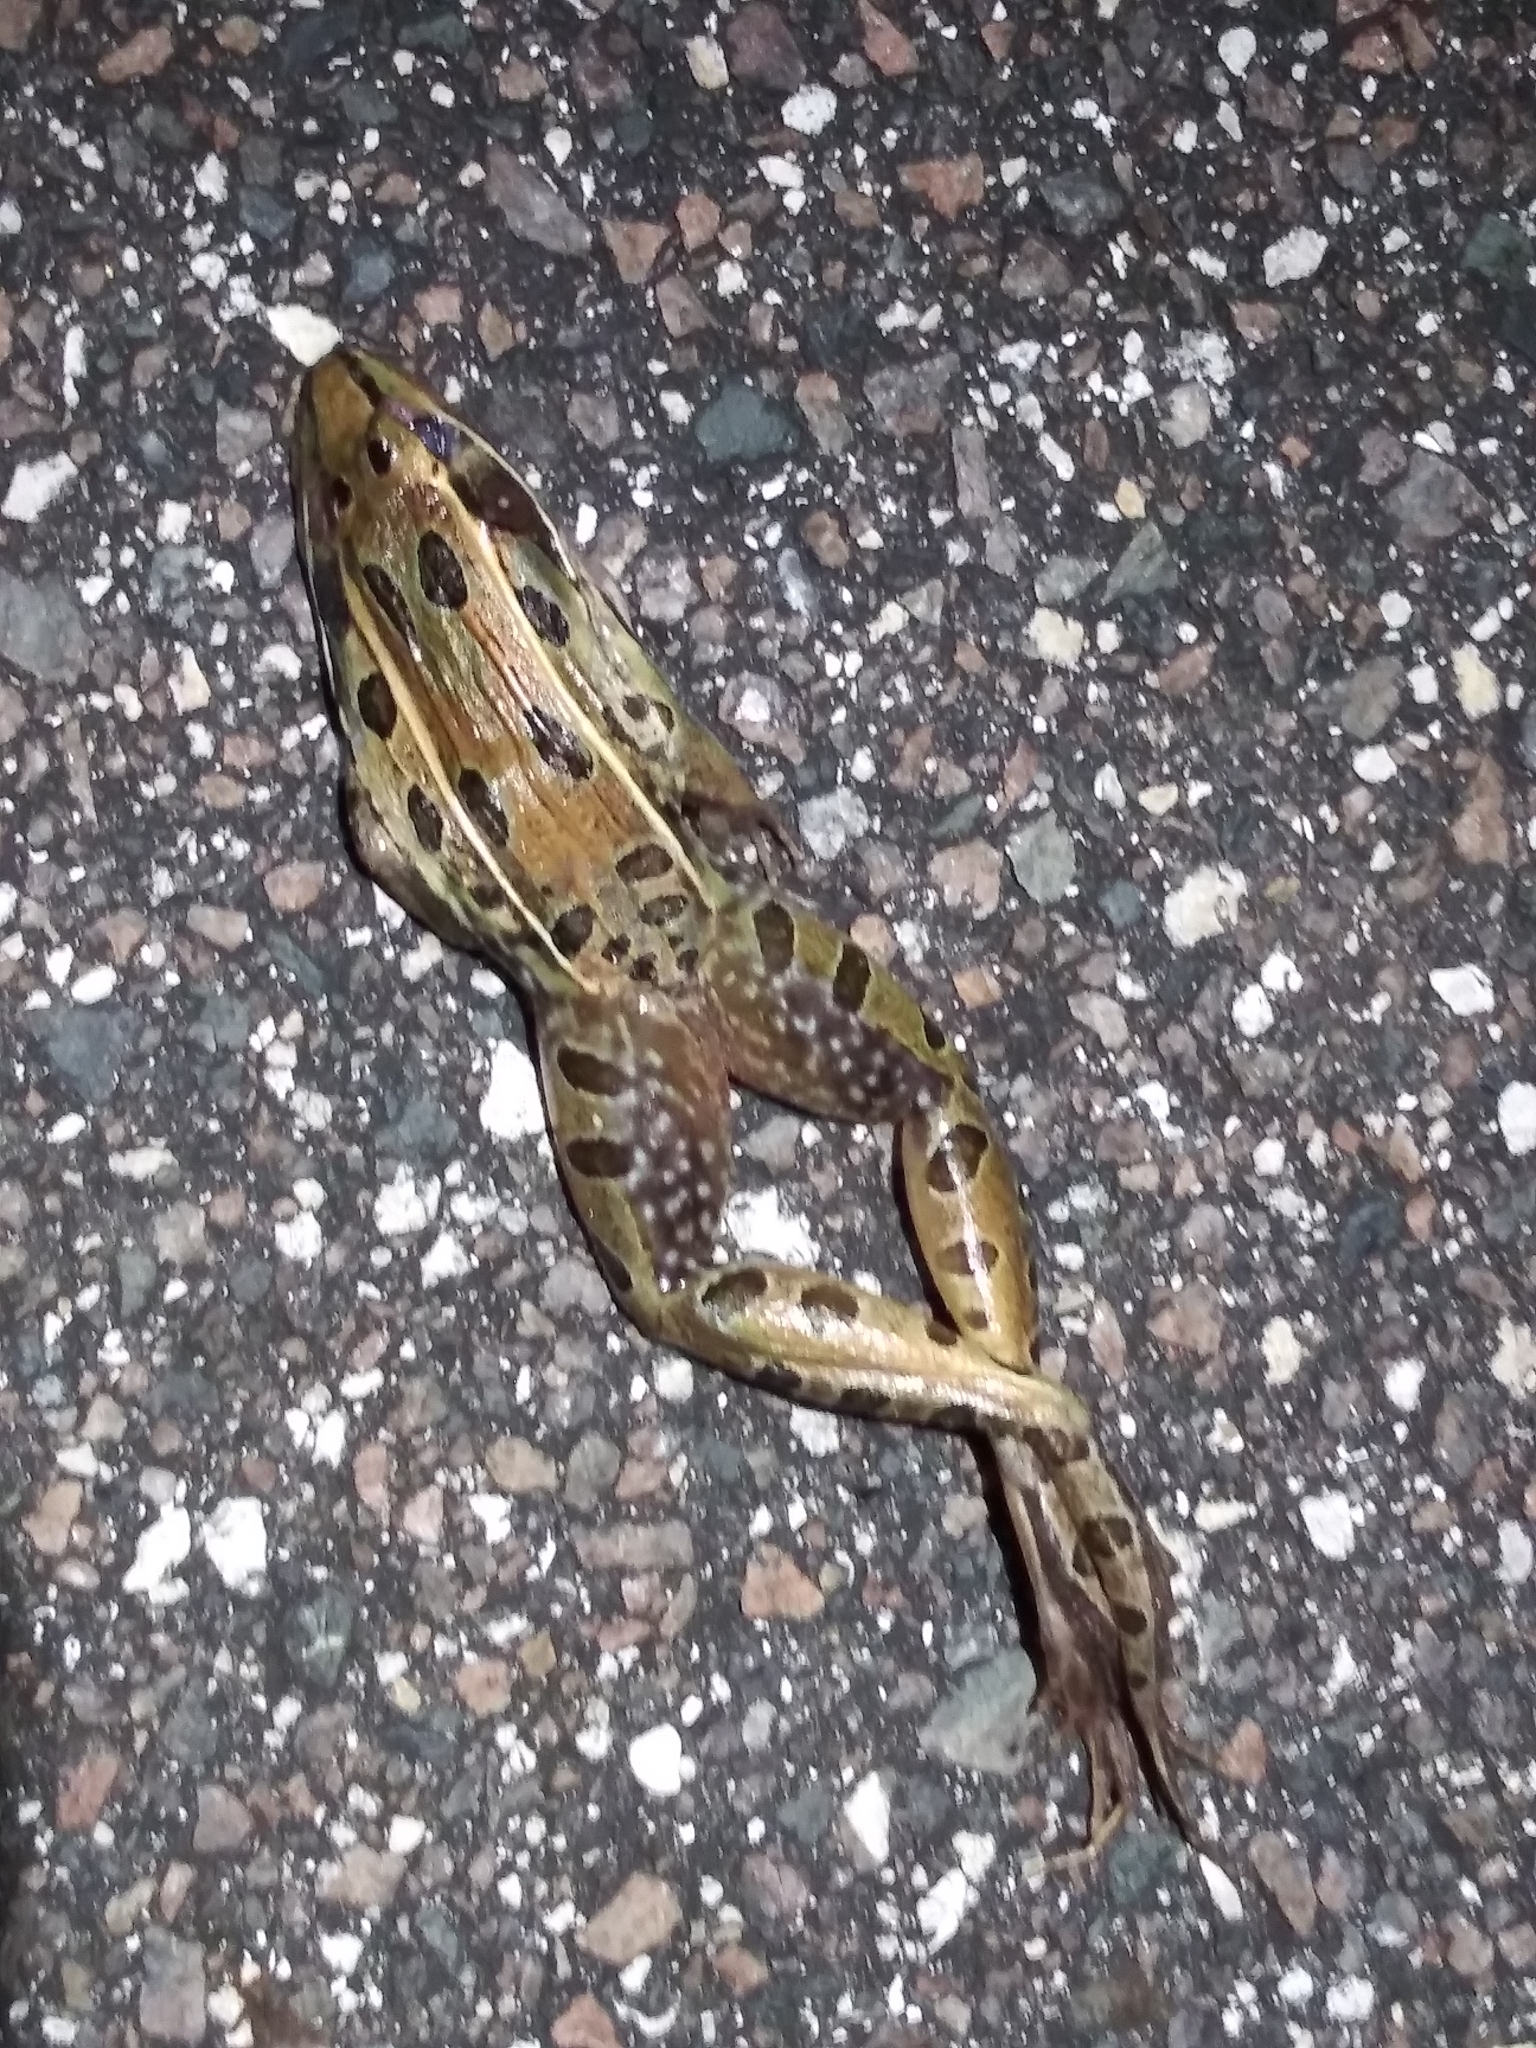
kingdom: Animalia
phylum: Chordata
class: Amphibia
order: Anura
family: Ranidae
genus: Lithobates
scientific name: Lithobates sphenocephalus
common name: Southern leopard frog
